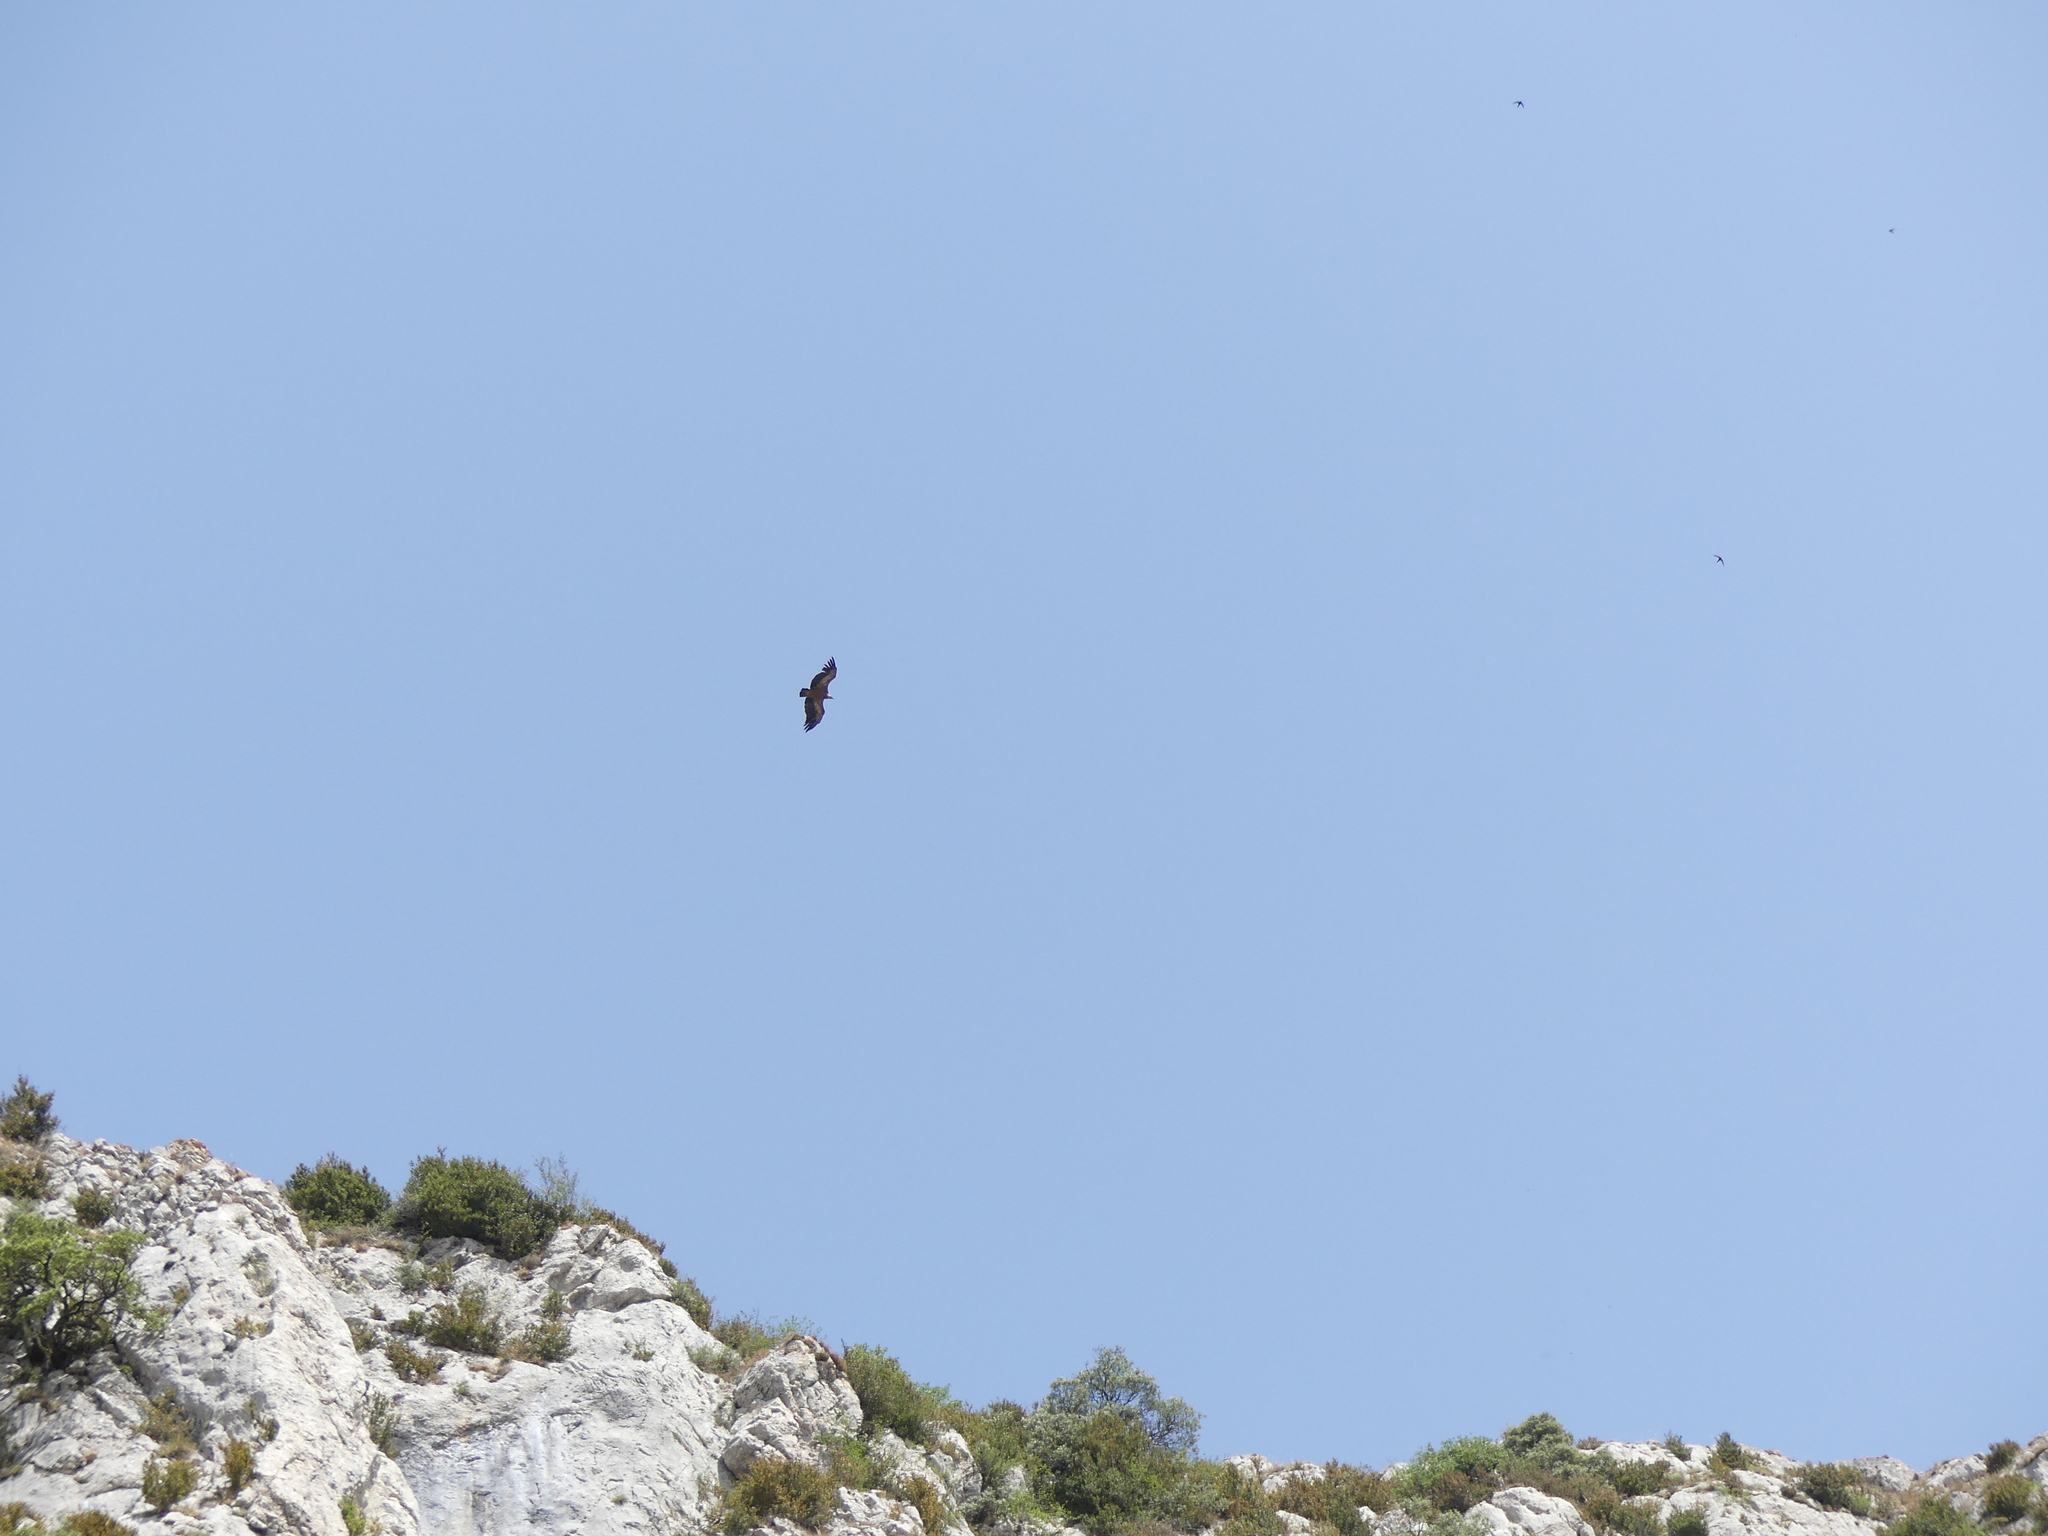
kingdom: Animalia
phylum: Chordata
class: Aves
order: Accipitriformes
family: Accipitridae
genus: Gyps
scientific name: Gyps fulvus
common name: Griffon vulture
